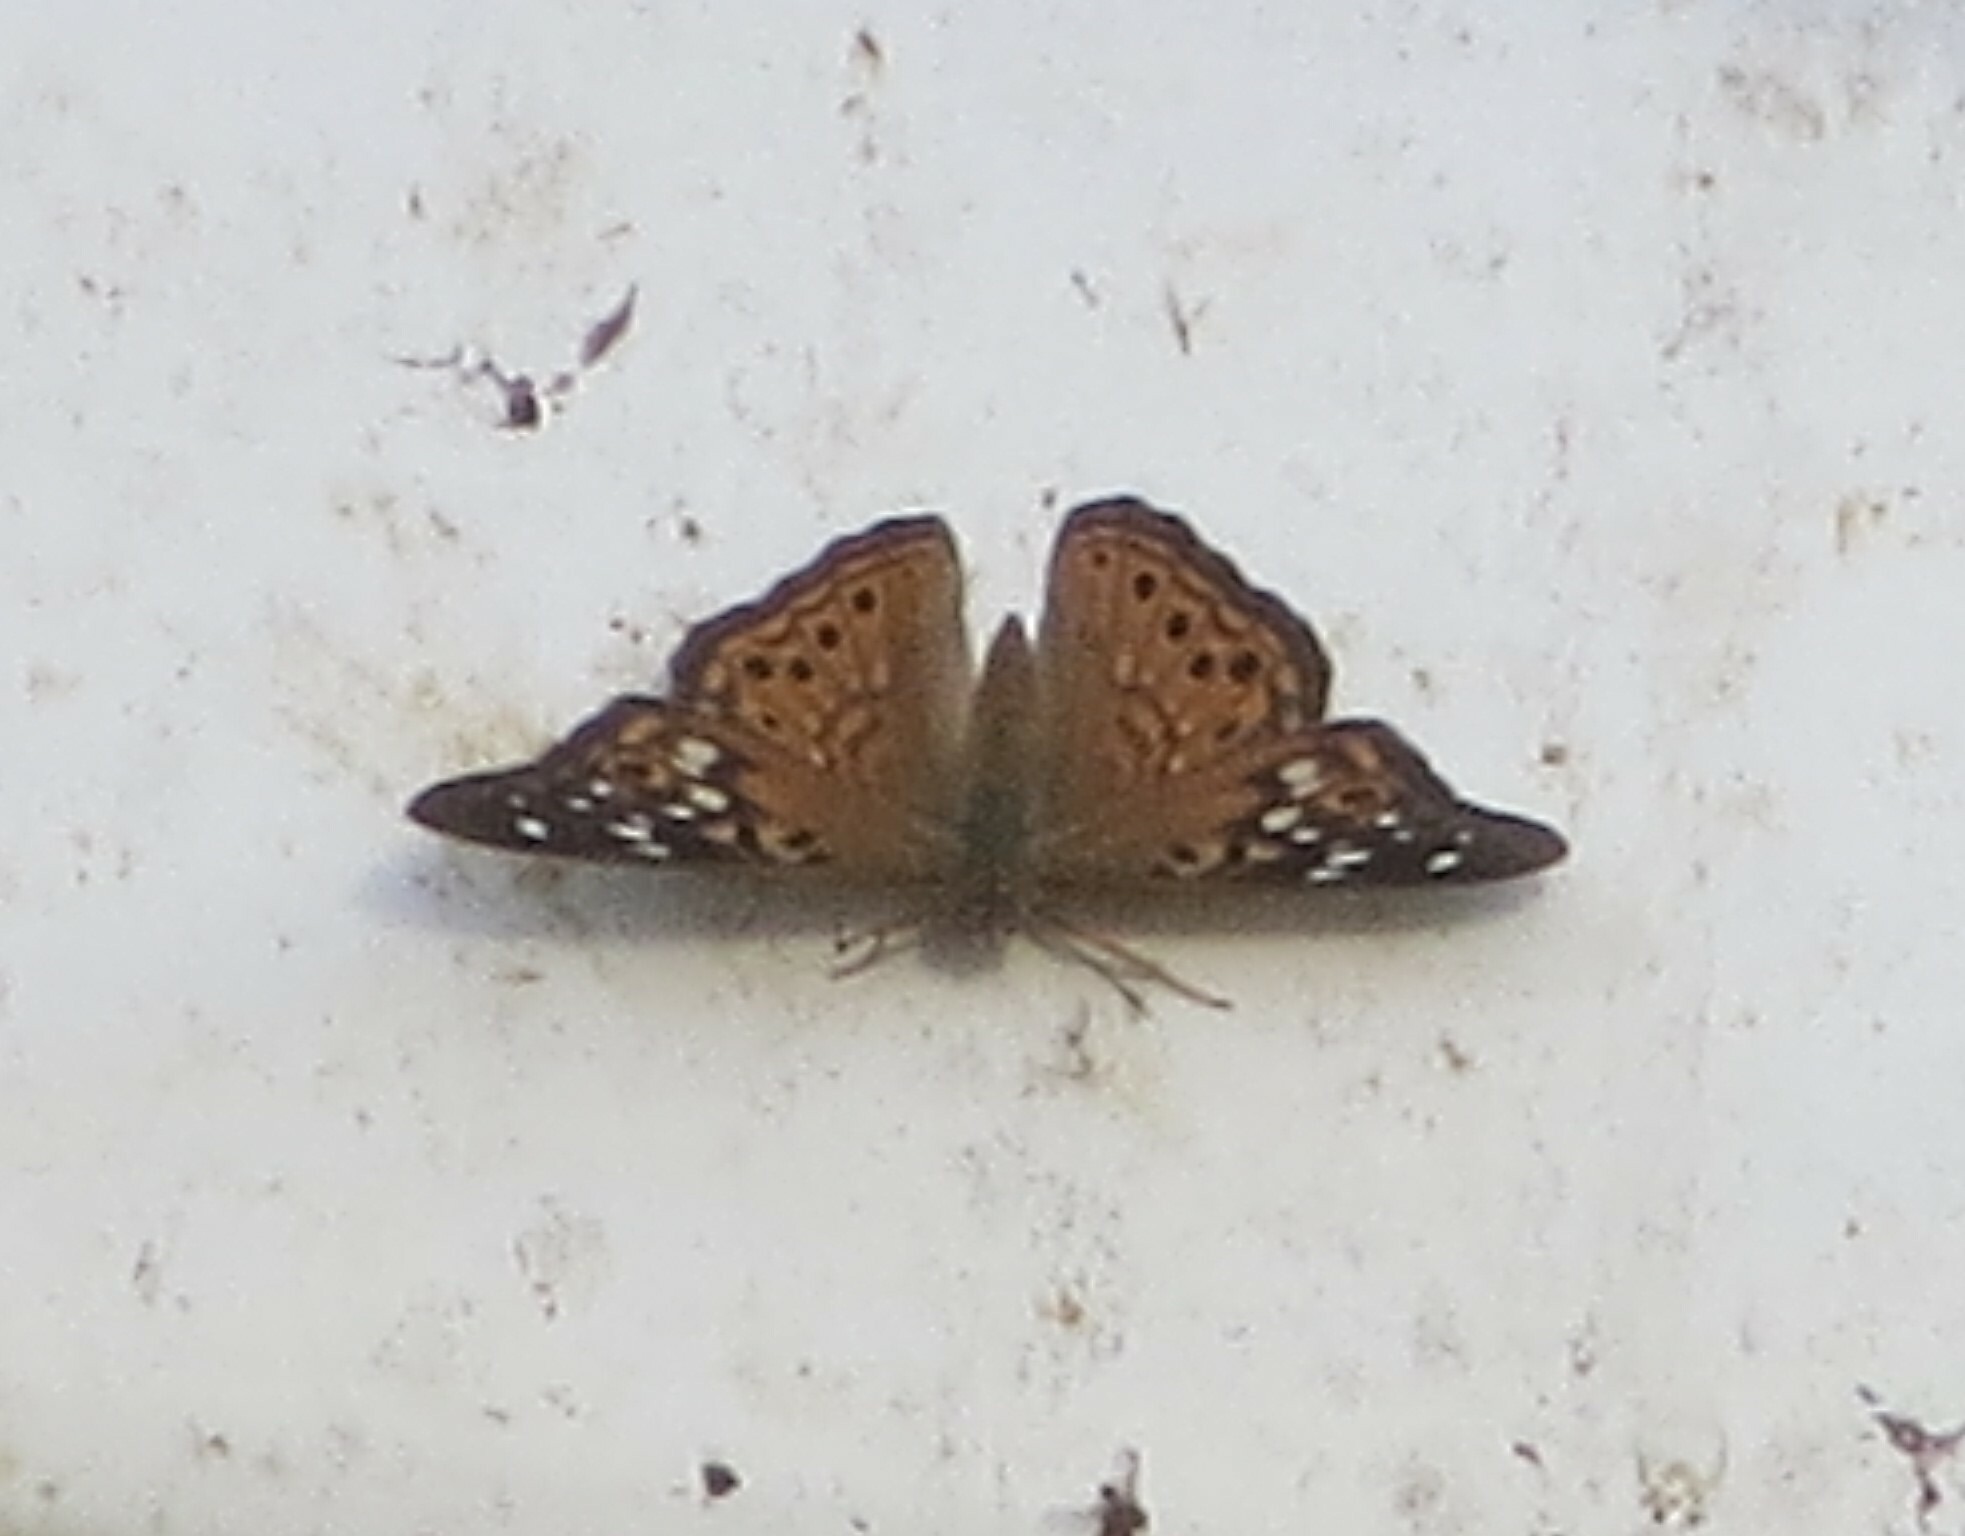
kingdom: Animalia
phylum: Arthropoda
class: Insecta
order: Lepidoptera
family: Nymphalidae
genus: Asterocampa
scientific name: Asterocampa celtis
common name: Hackberry emperor
